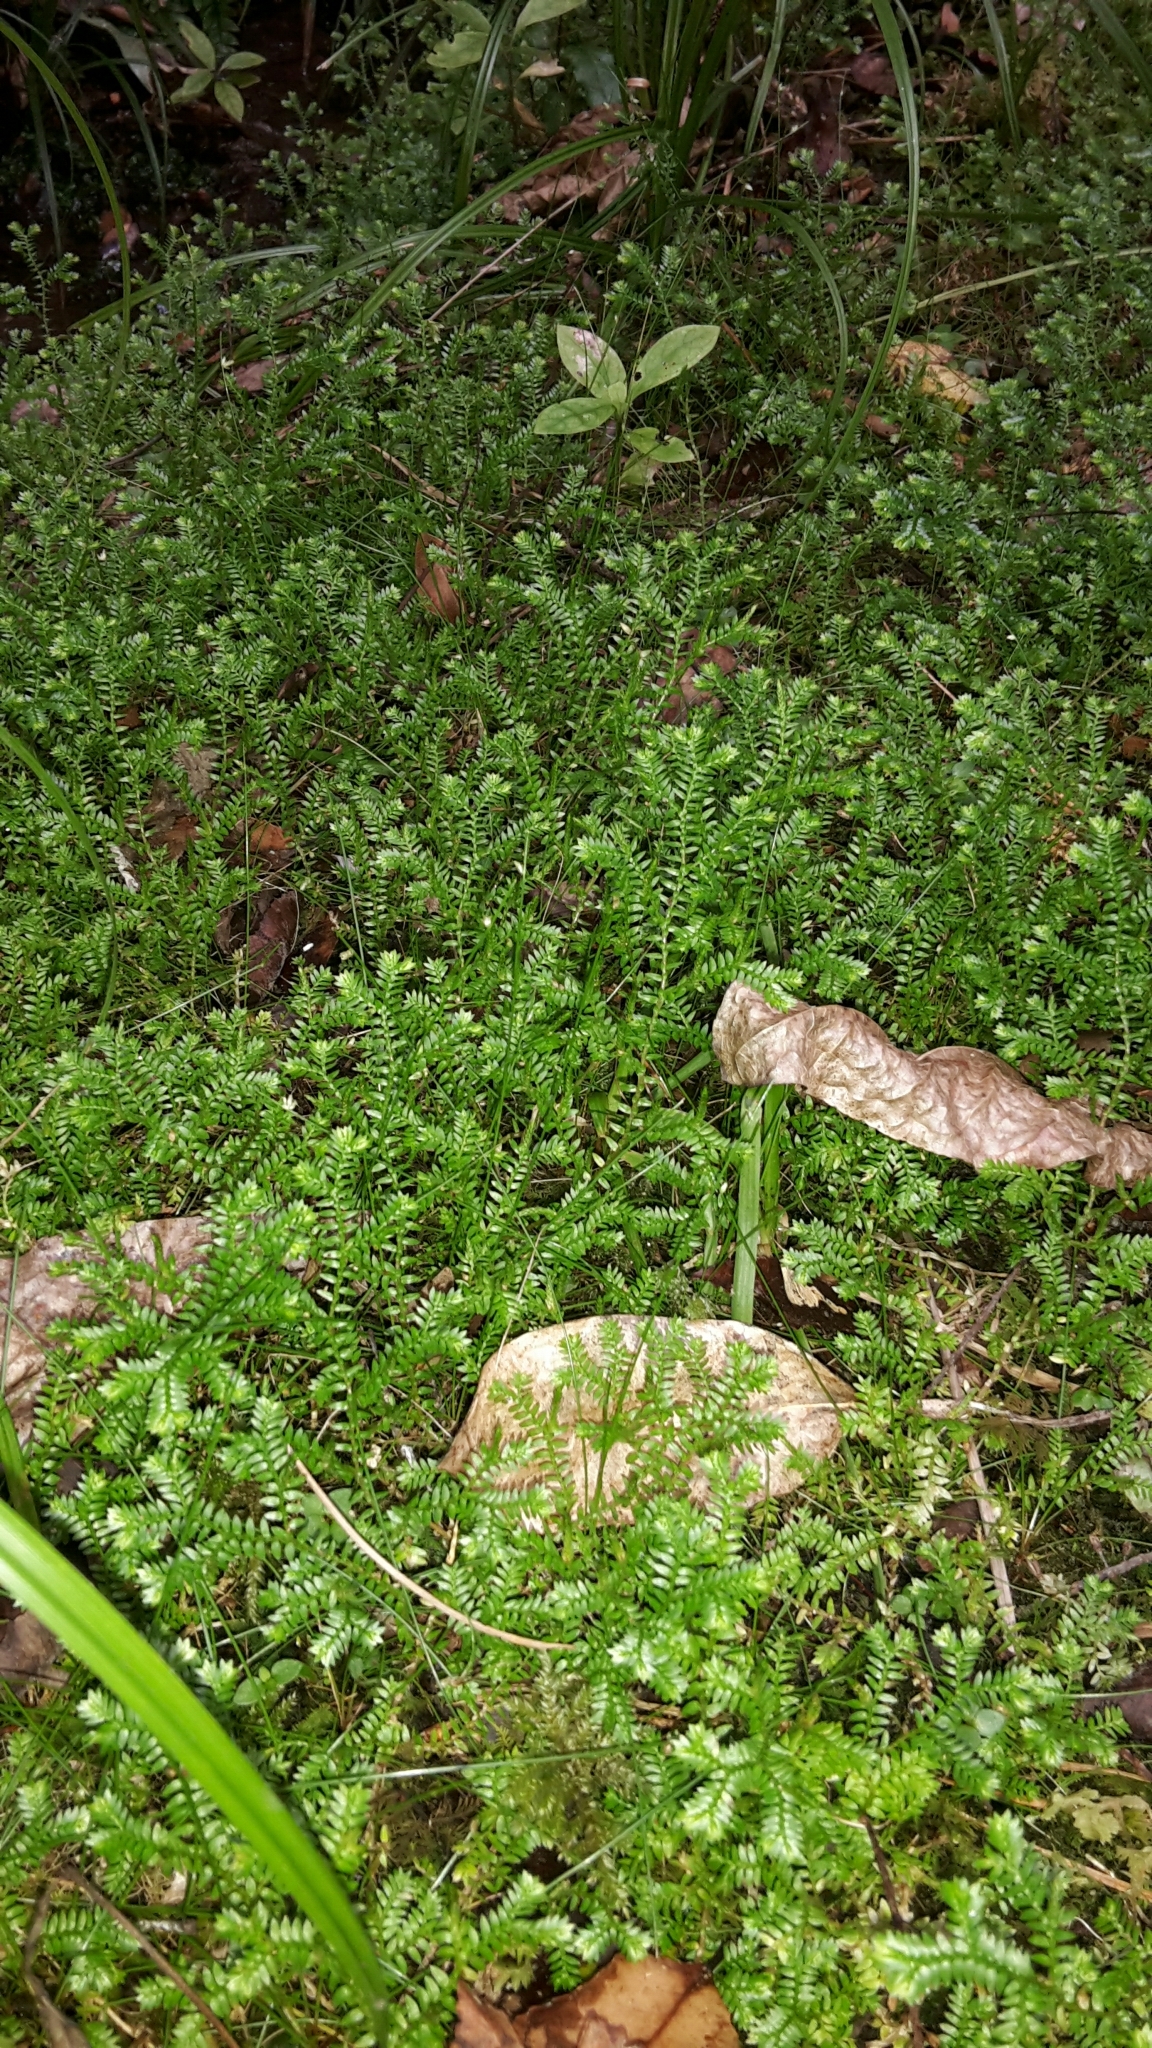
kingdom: Plantae
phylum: Tracheophyta
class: Lycopodiopsida
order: Selaginellales
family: Selaginellaceae
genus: Selaginella
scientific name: Selaginella kraussiana
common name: Krauss' spikemoss
